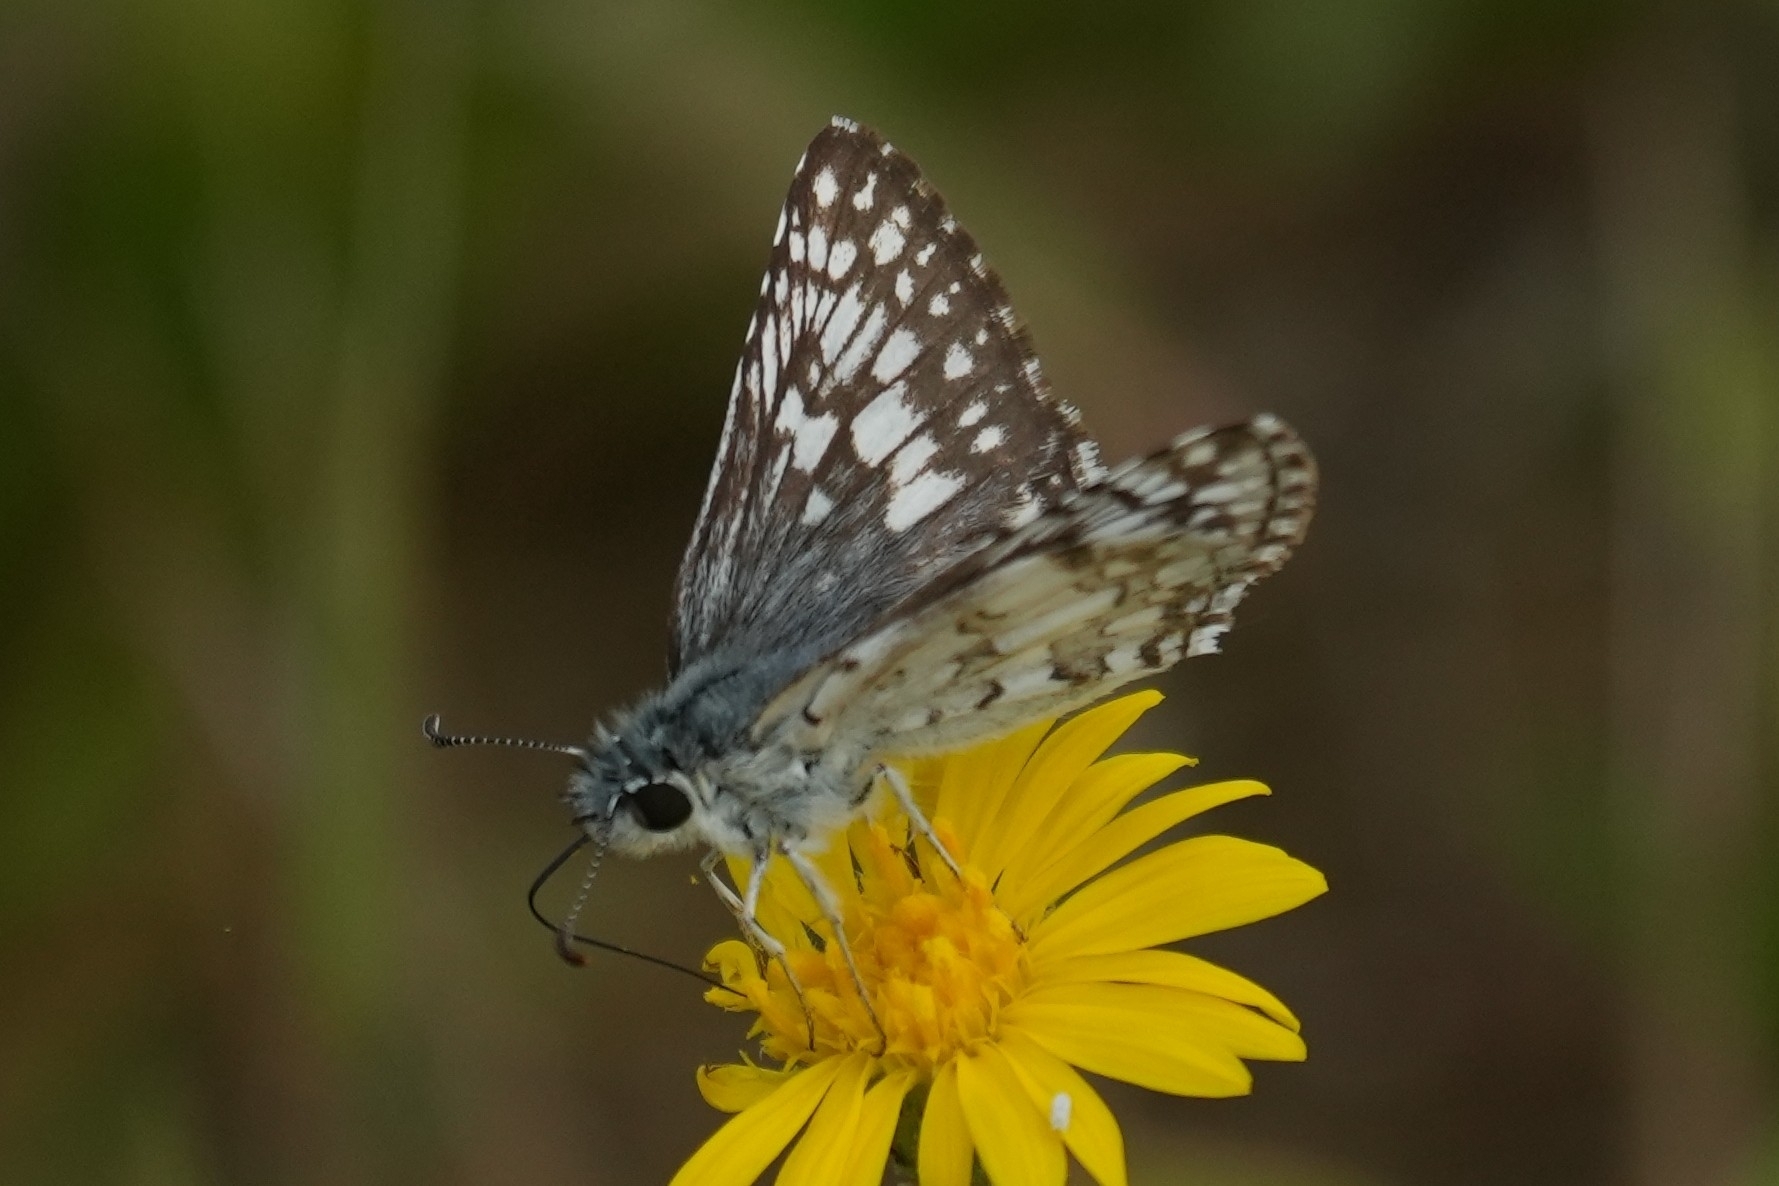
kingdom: Animalia
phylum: Arthropoda
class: Insecta
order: Lepidoptera
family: Hesperiidae
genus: Burnsius
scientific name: Burnsius communis
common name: Common checkered-skipper
